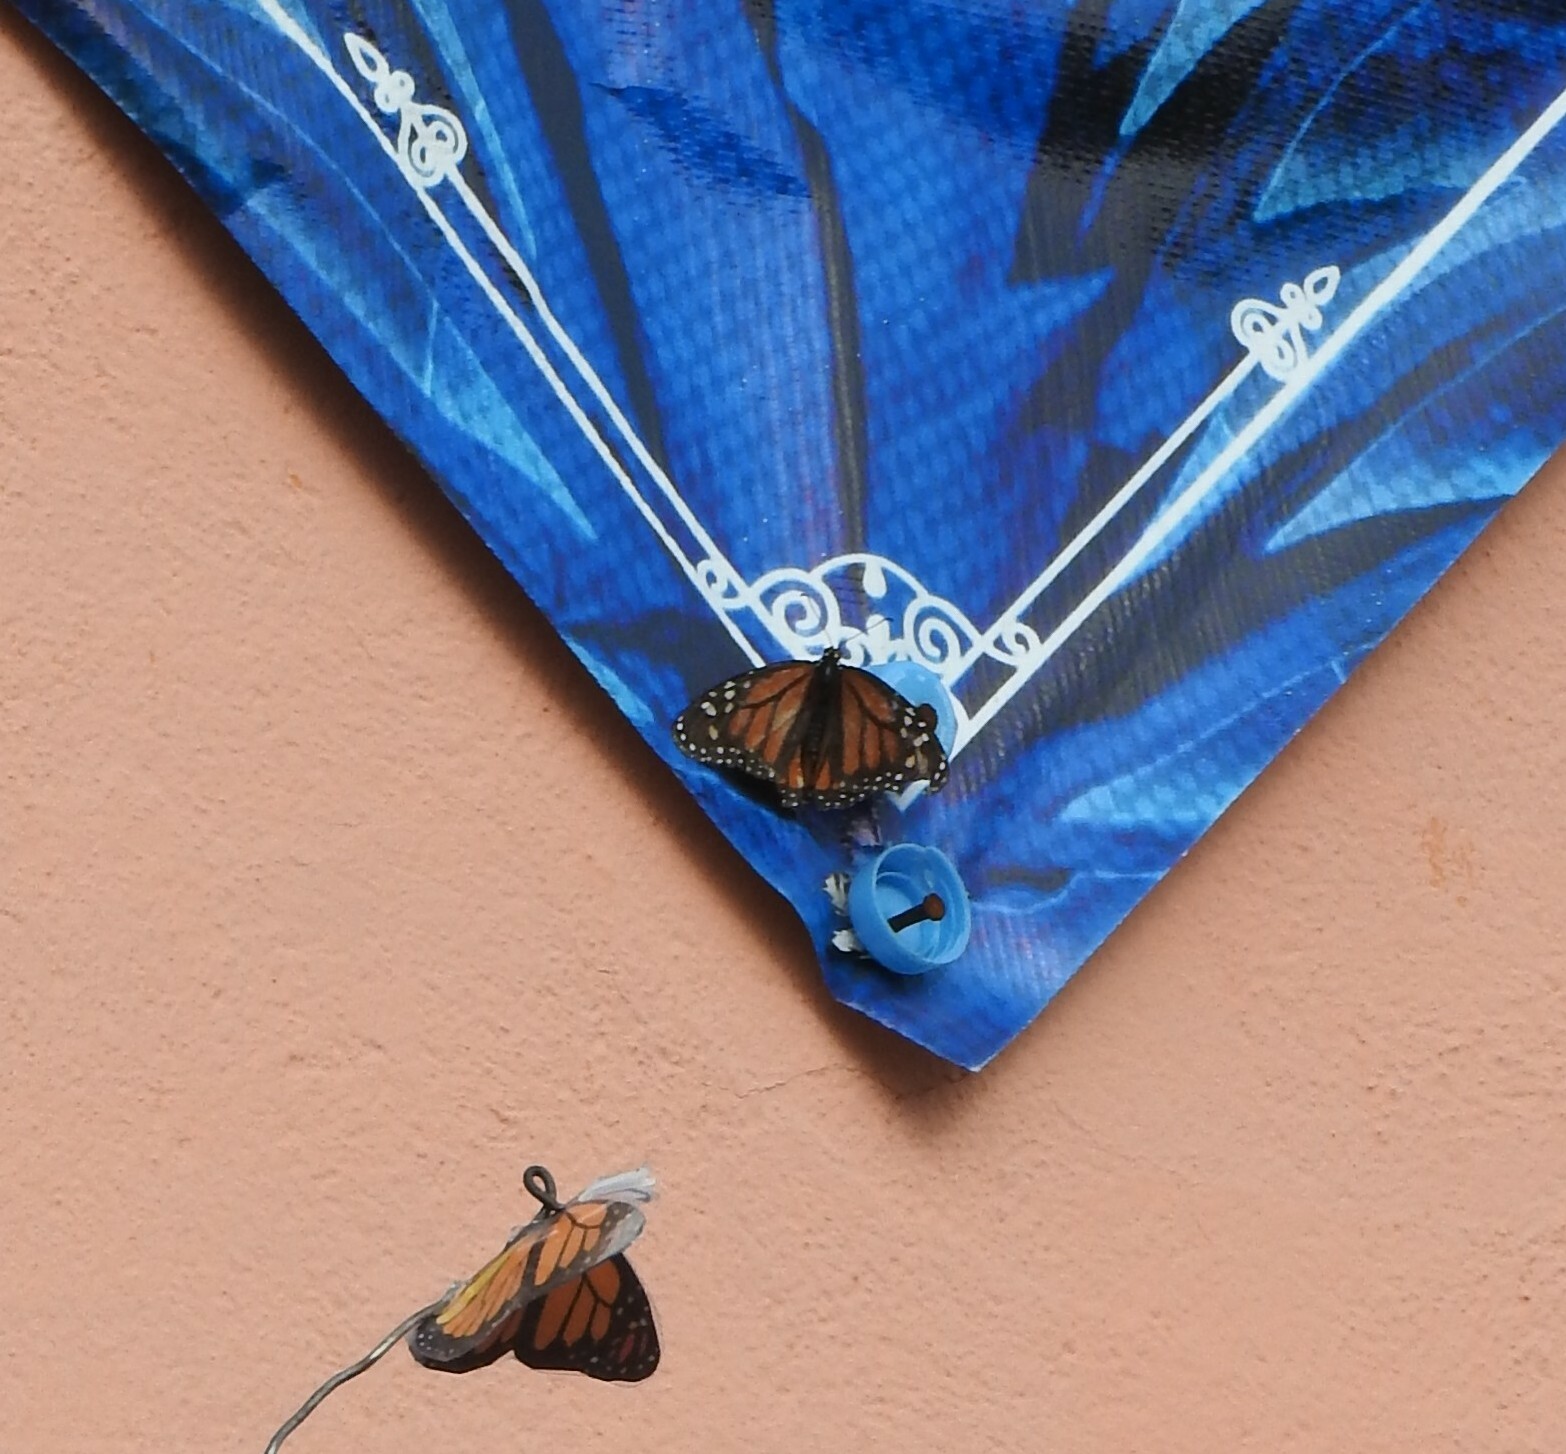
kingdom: Animalia
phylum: Arthropoda
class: Insecta
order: Lepidoptera
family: Nymphalidae
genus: Danaus
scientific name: Danaus plexippus
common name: Monarch
